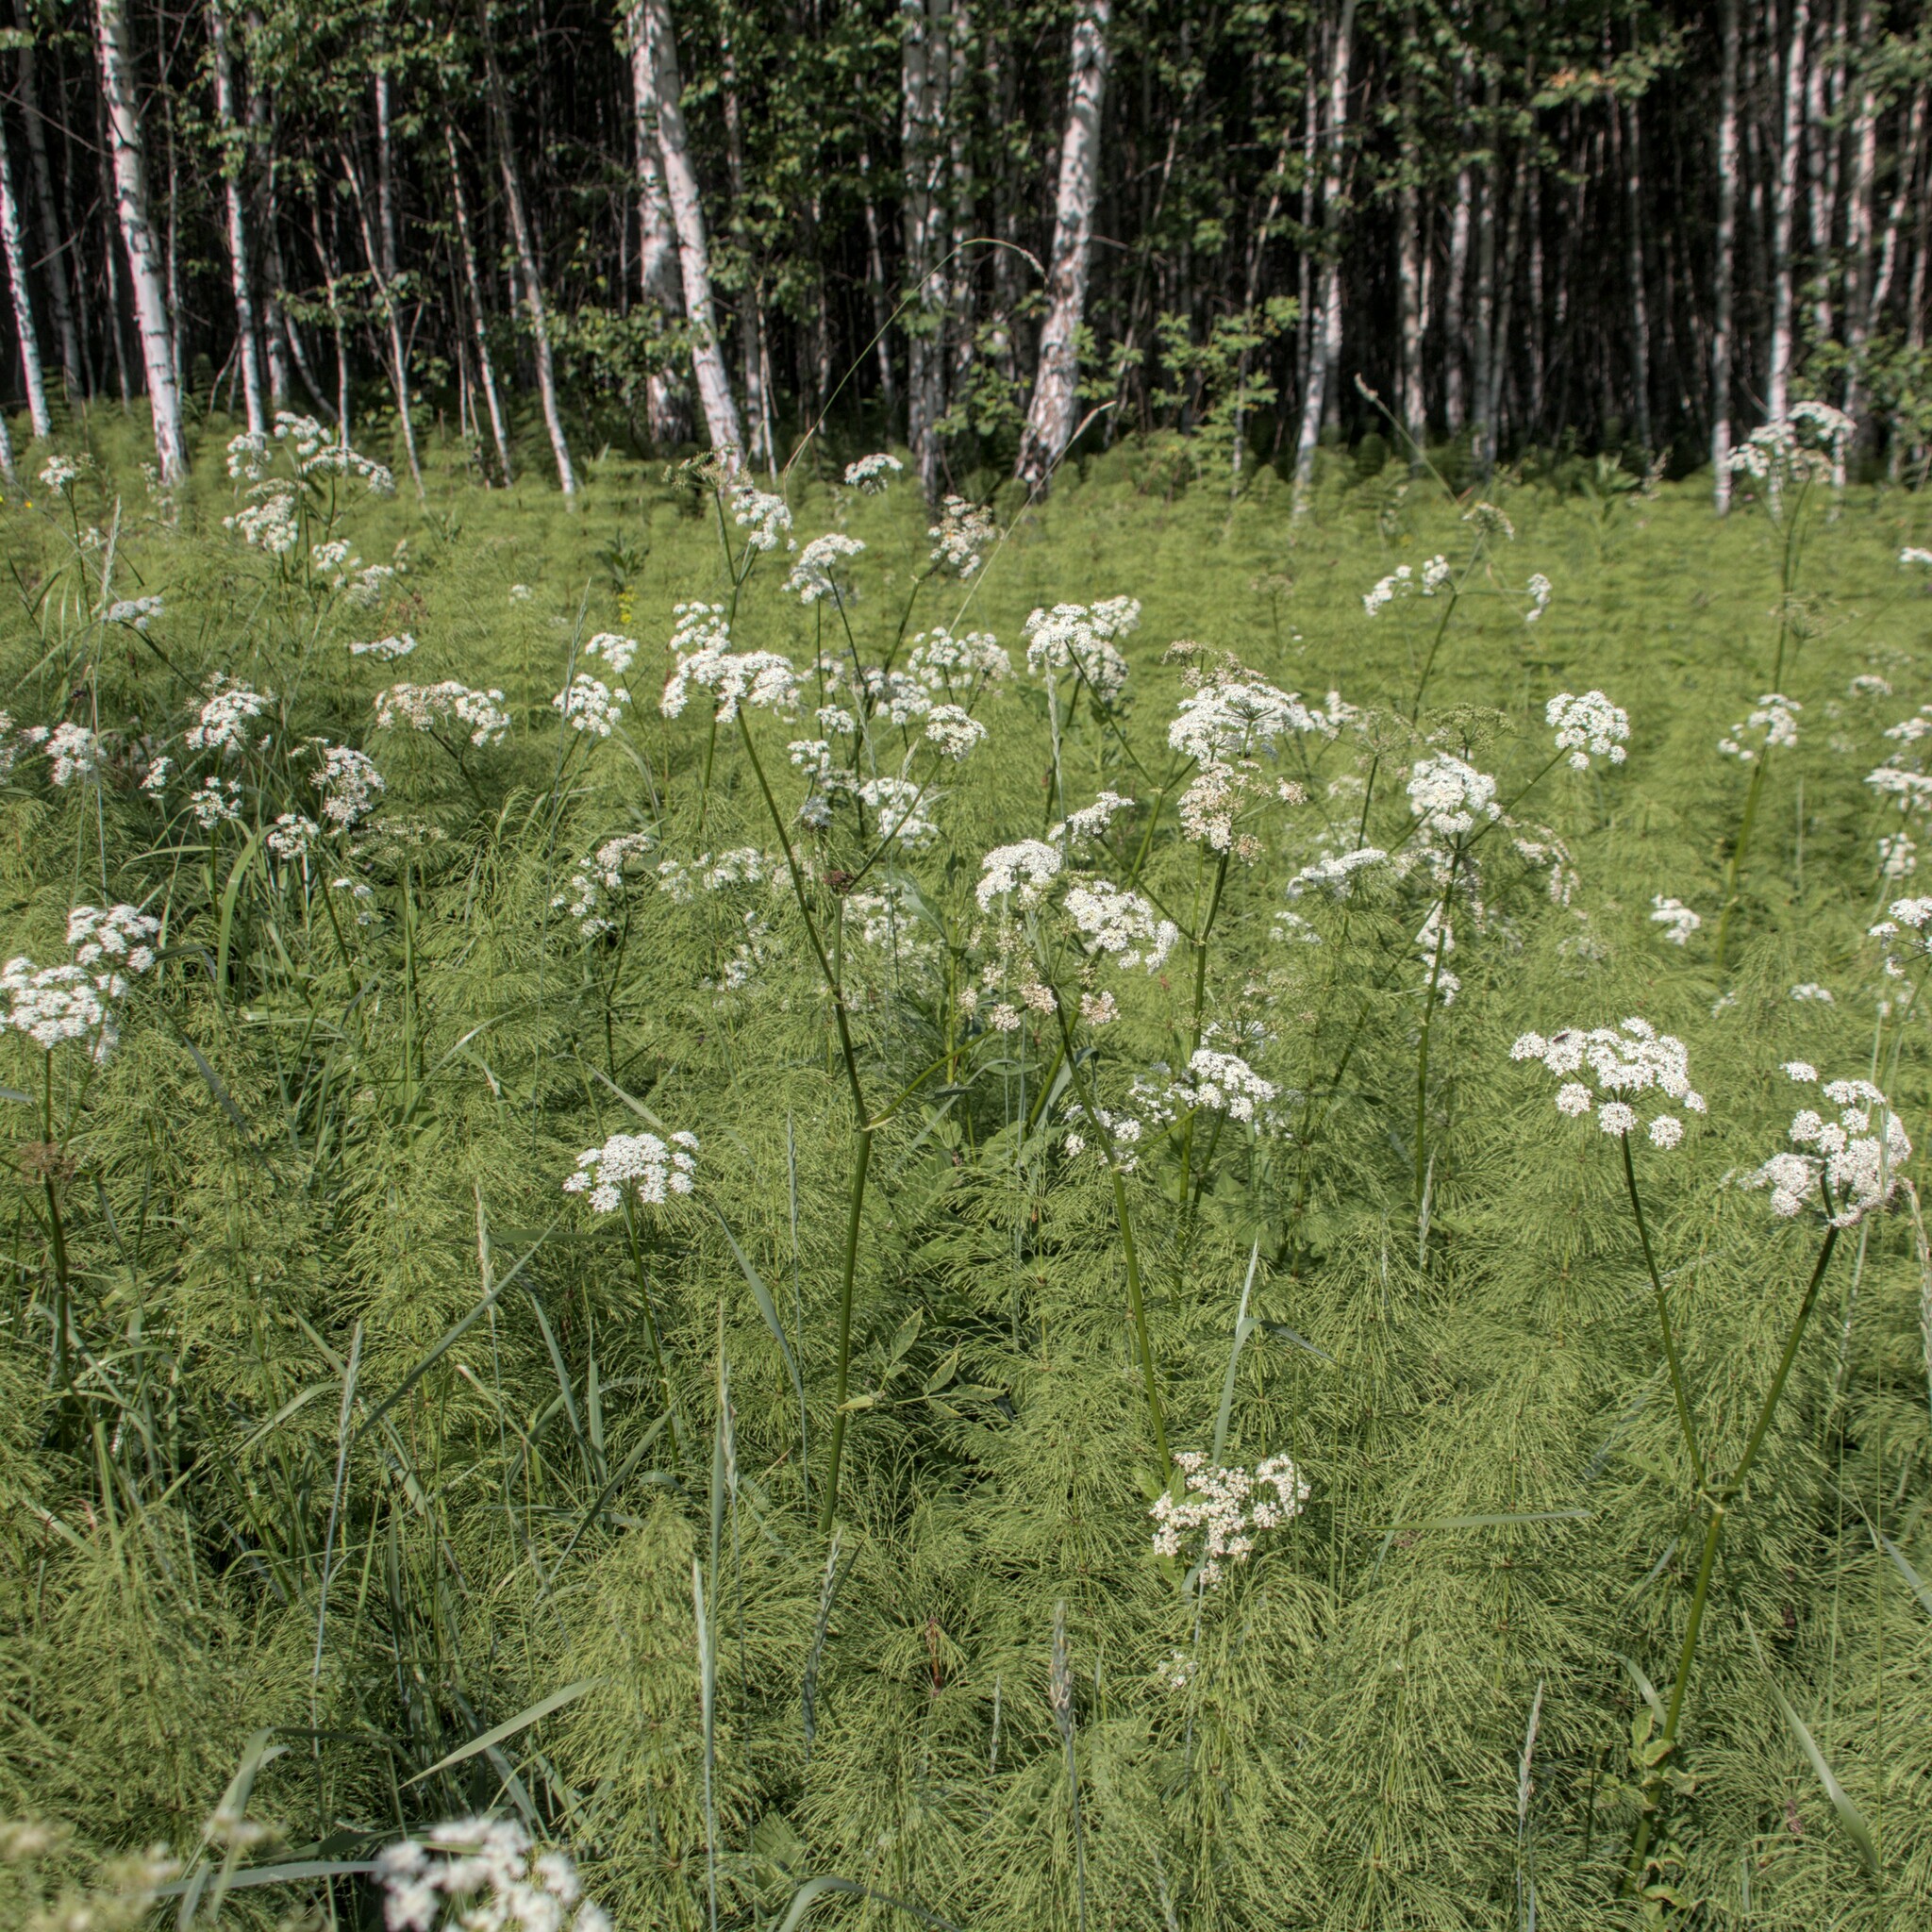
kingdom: Plantae
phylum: Tracheophyta
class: Magnoliopsida
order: Apiales
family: Apiaceae
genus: Aegopodium
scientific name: Aegopodium podagraria
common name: Ground-elder
